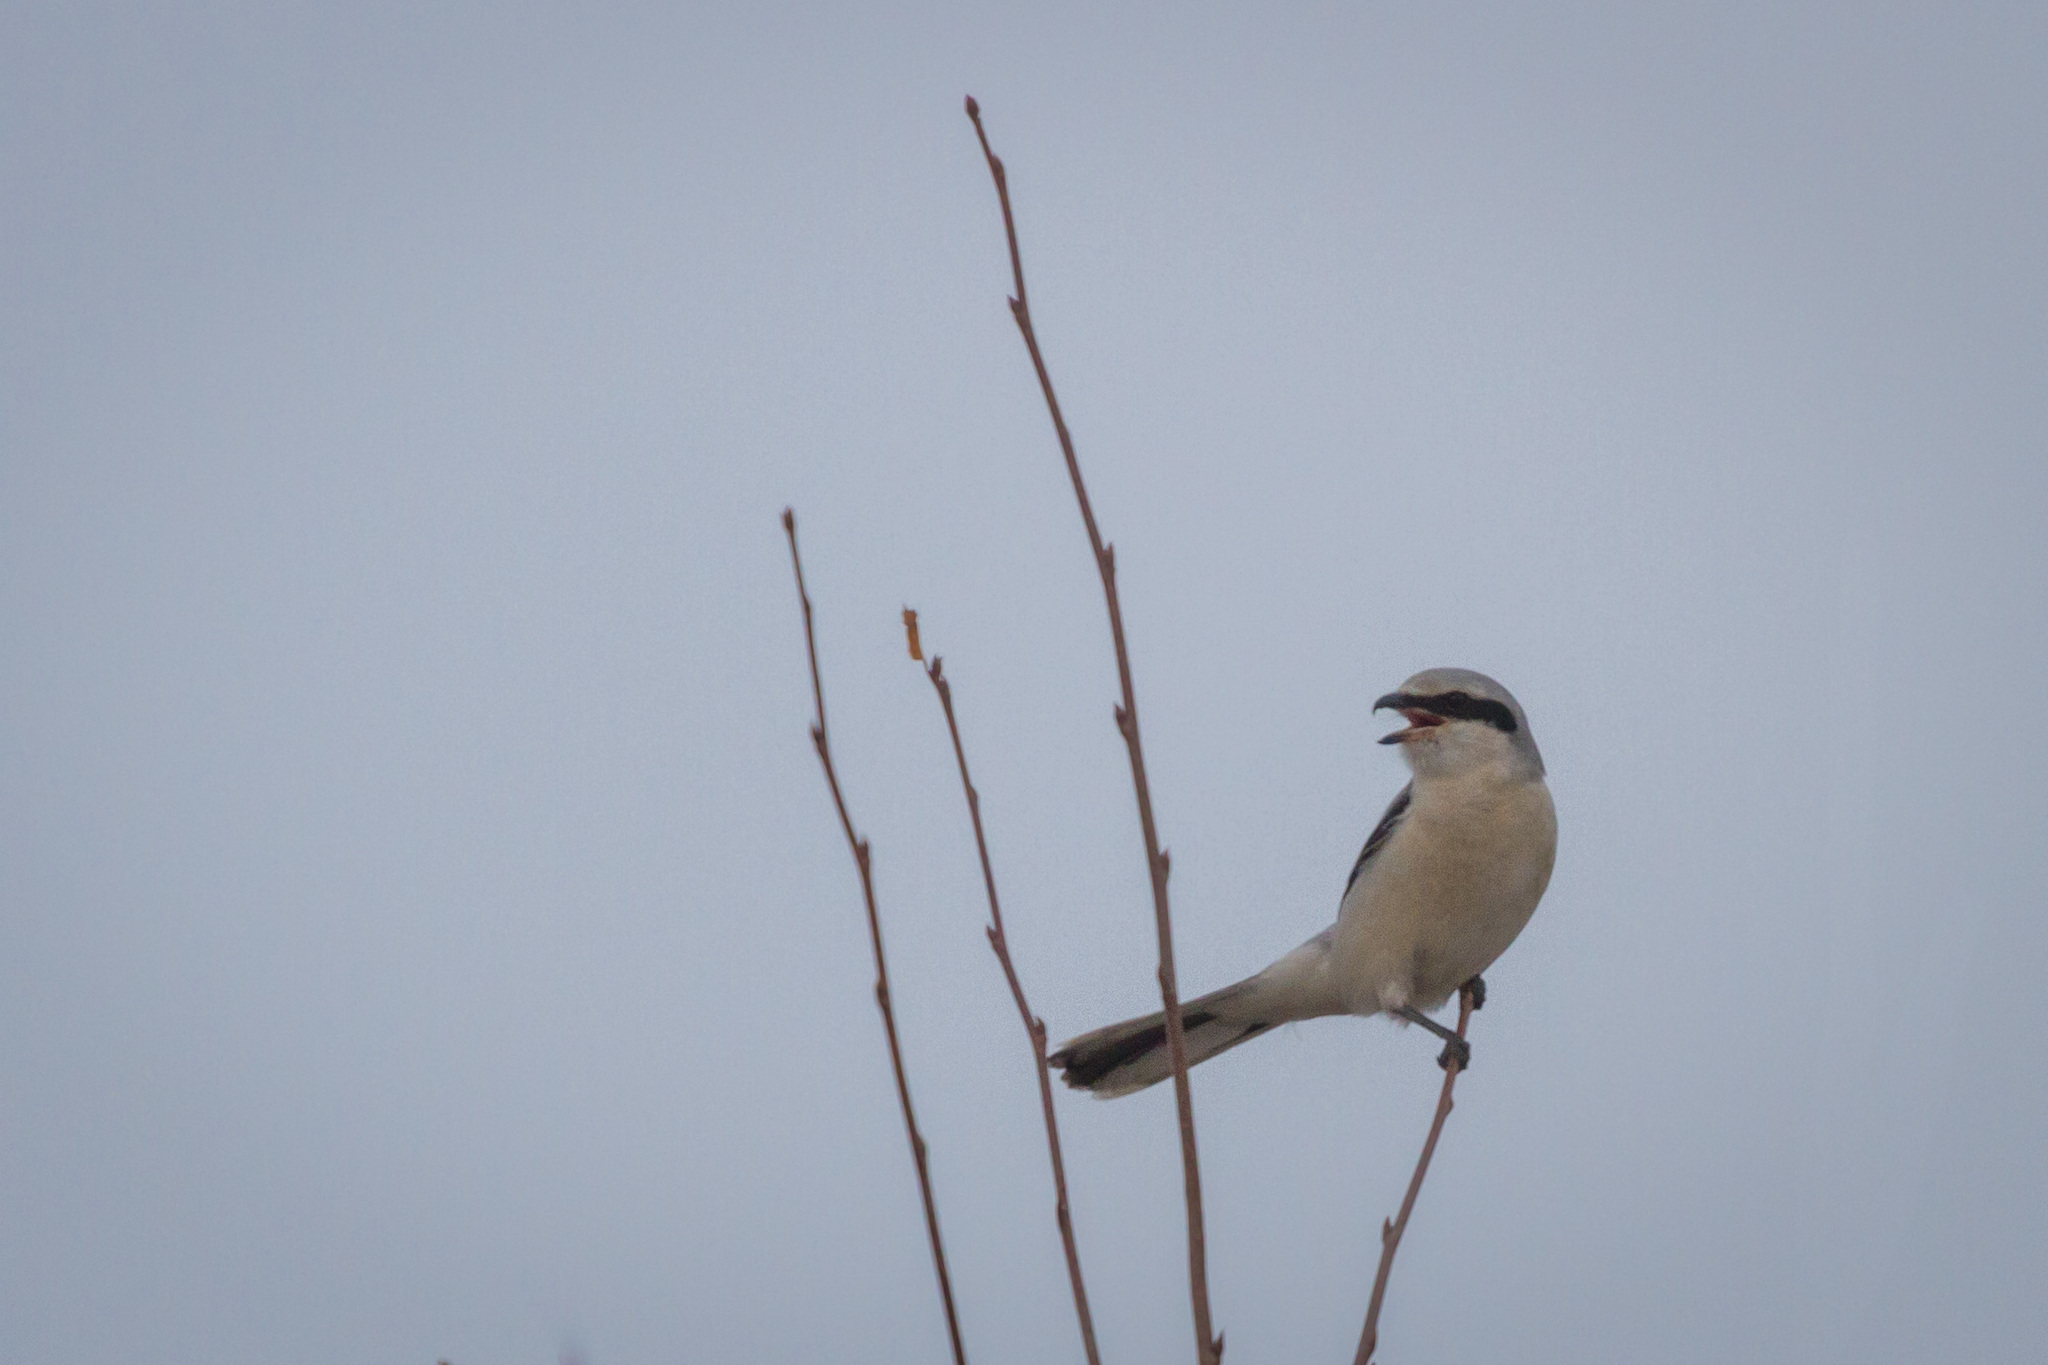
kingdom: Animalia
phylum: Chordata
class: Aves
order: Passeriformes
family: Laniidae
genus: Lanius
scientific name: Lanius excubitor
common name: Great grey shrike
